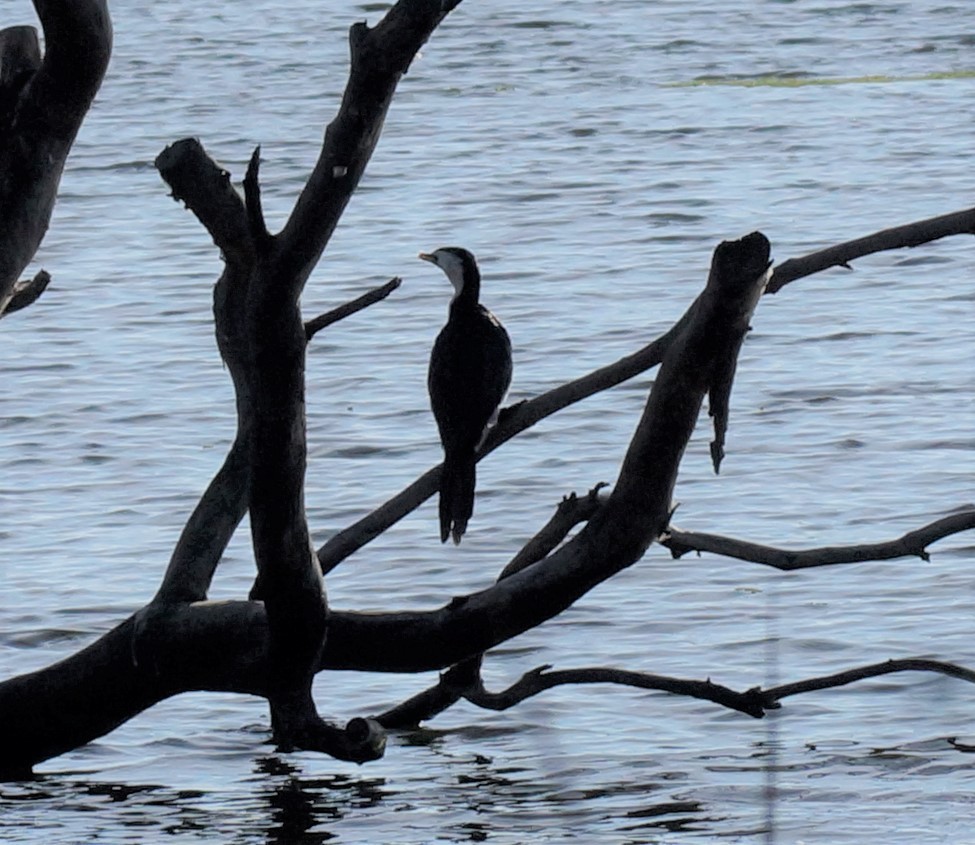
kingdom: Animalia
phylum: Chordata
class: Aves
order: Suliformes
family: Phalacrocoracidae
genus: Microcarbo
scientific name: Microcarbo melanoleucos
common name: Little pied cormorant
